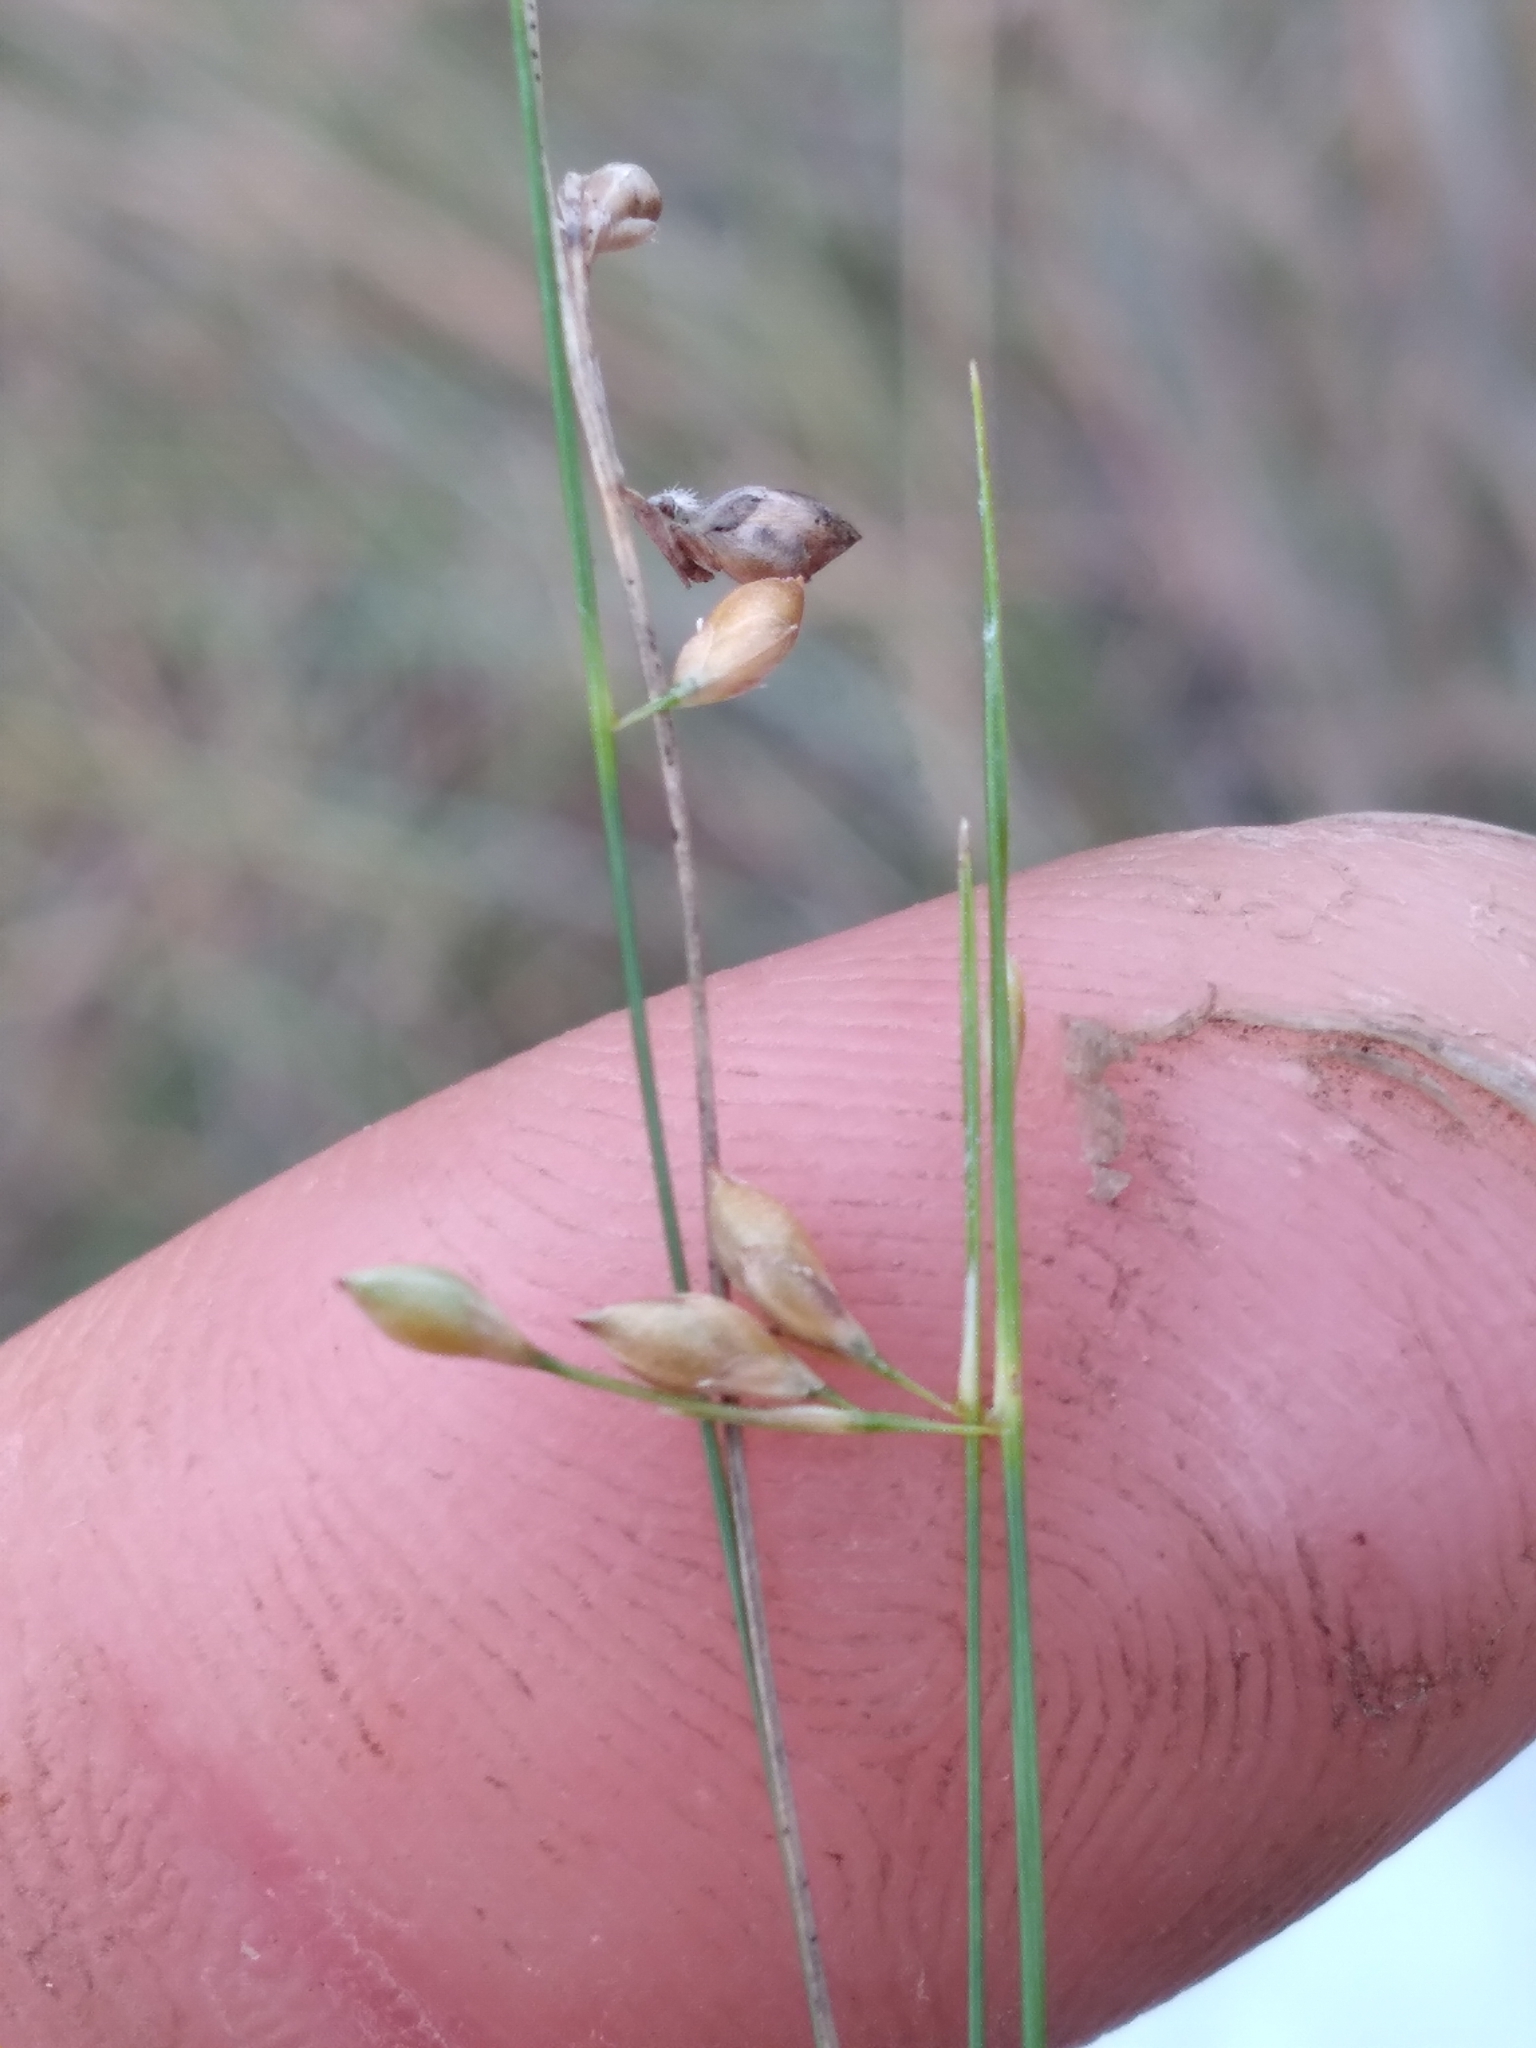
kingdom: Plantae
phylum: Tracheophyta
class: Liliopsida
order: Poales
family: Cyperaceae
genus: Rhynchospora
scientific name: Rhynchospora oligantha
